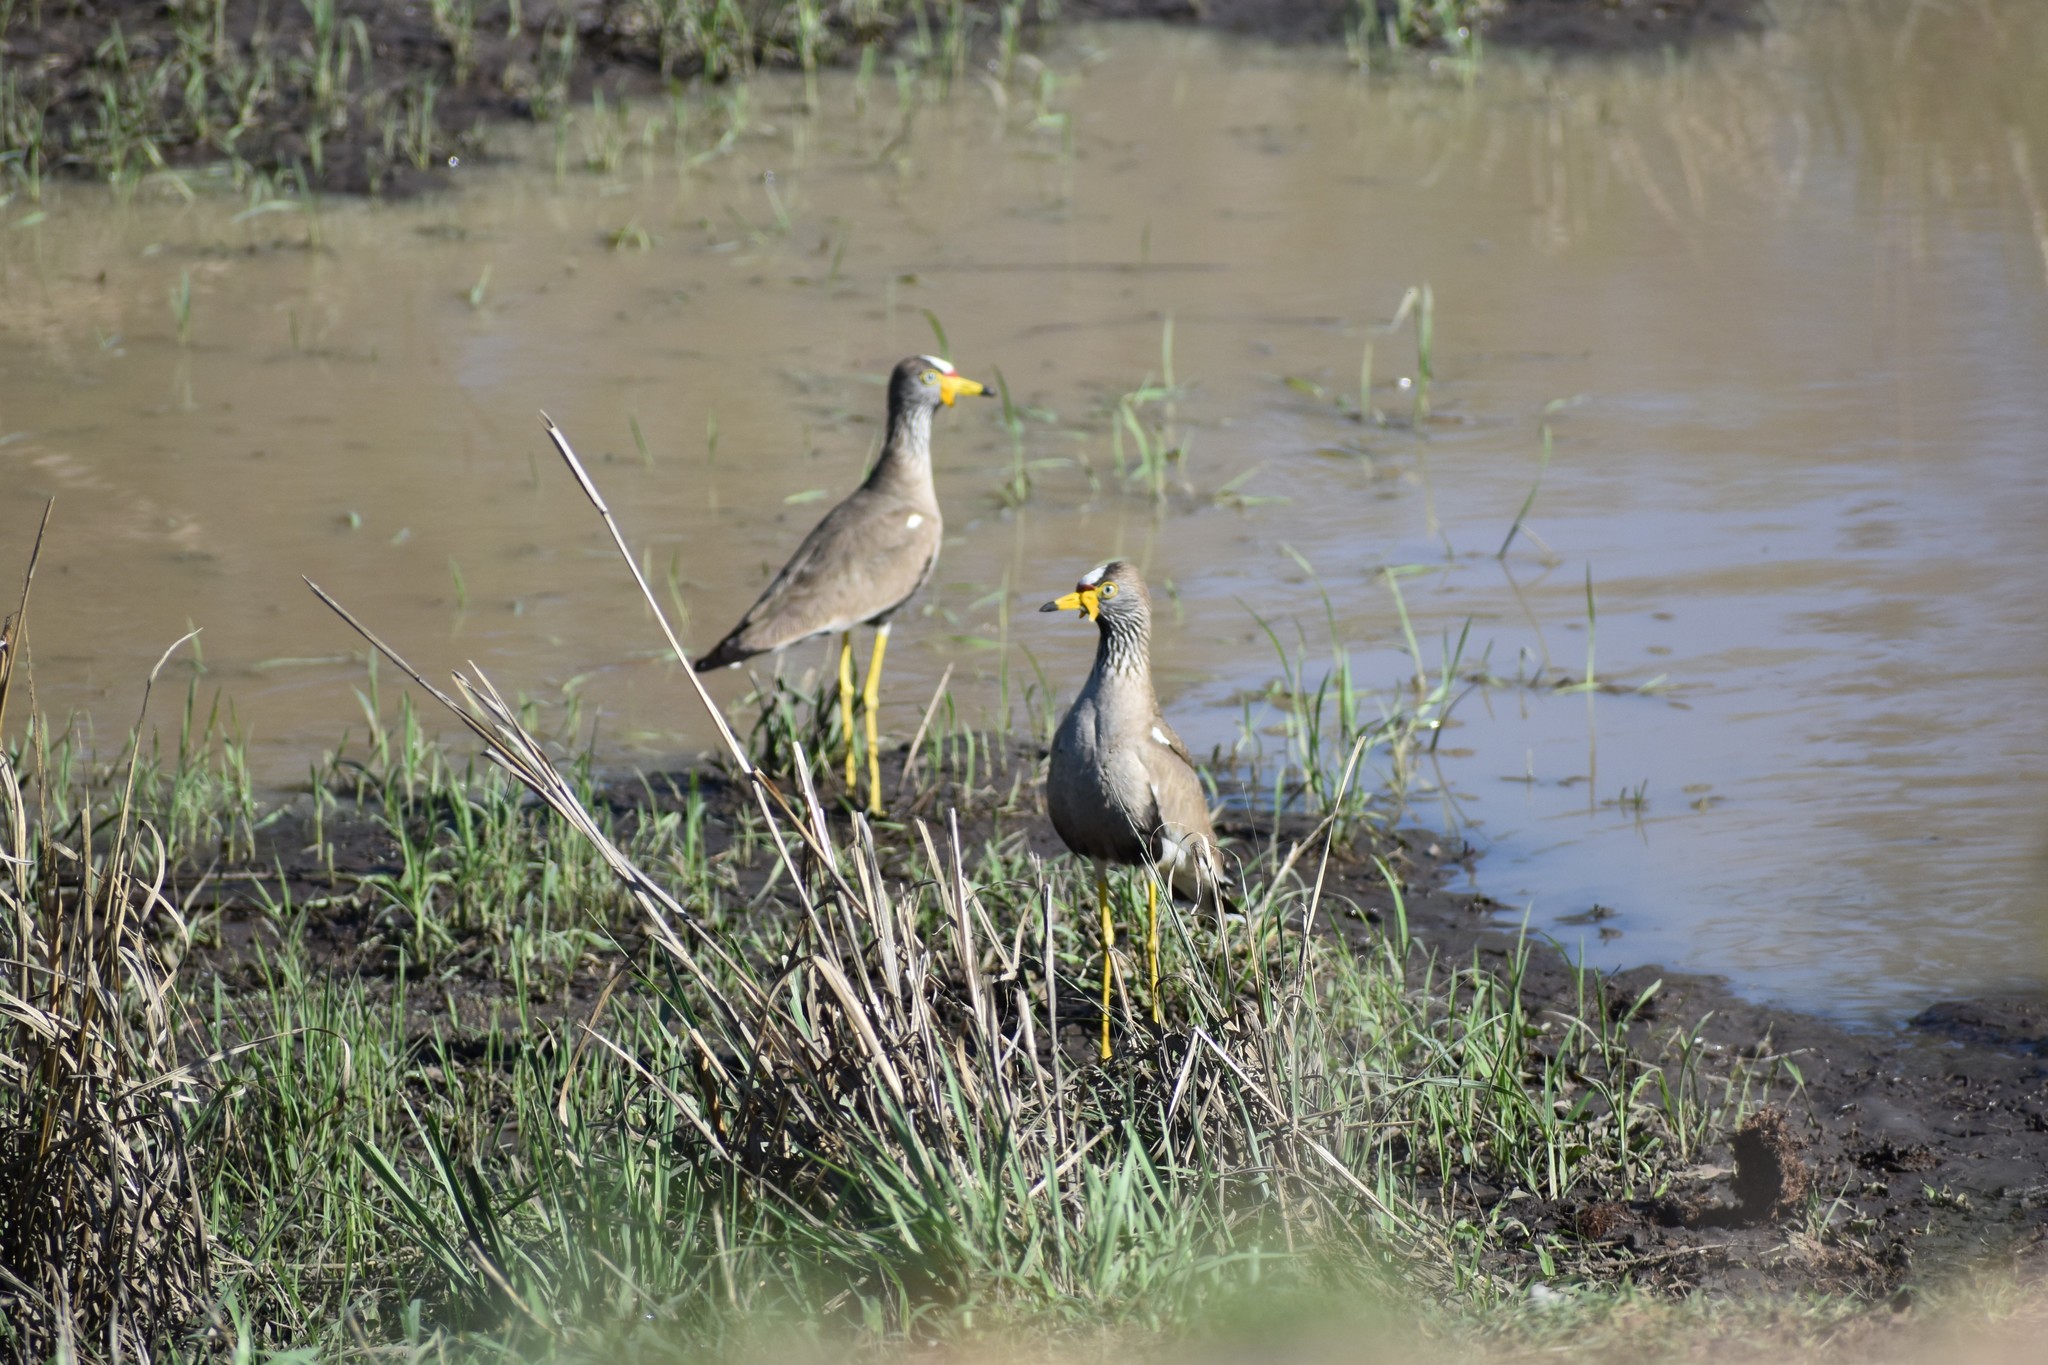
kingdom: Animalia
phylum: Chordata
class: Aves
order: Charadriiformes
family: Charadriidae
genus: Vanellus
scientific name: Vanellus senegallus
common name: African wattled lapwing
